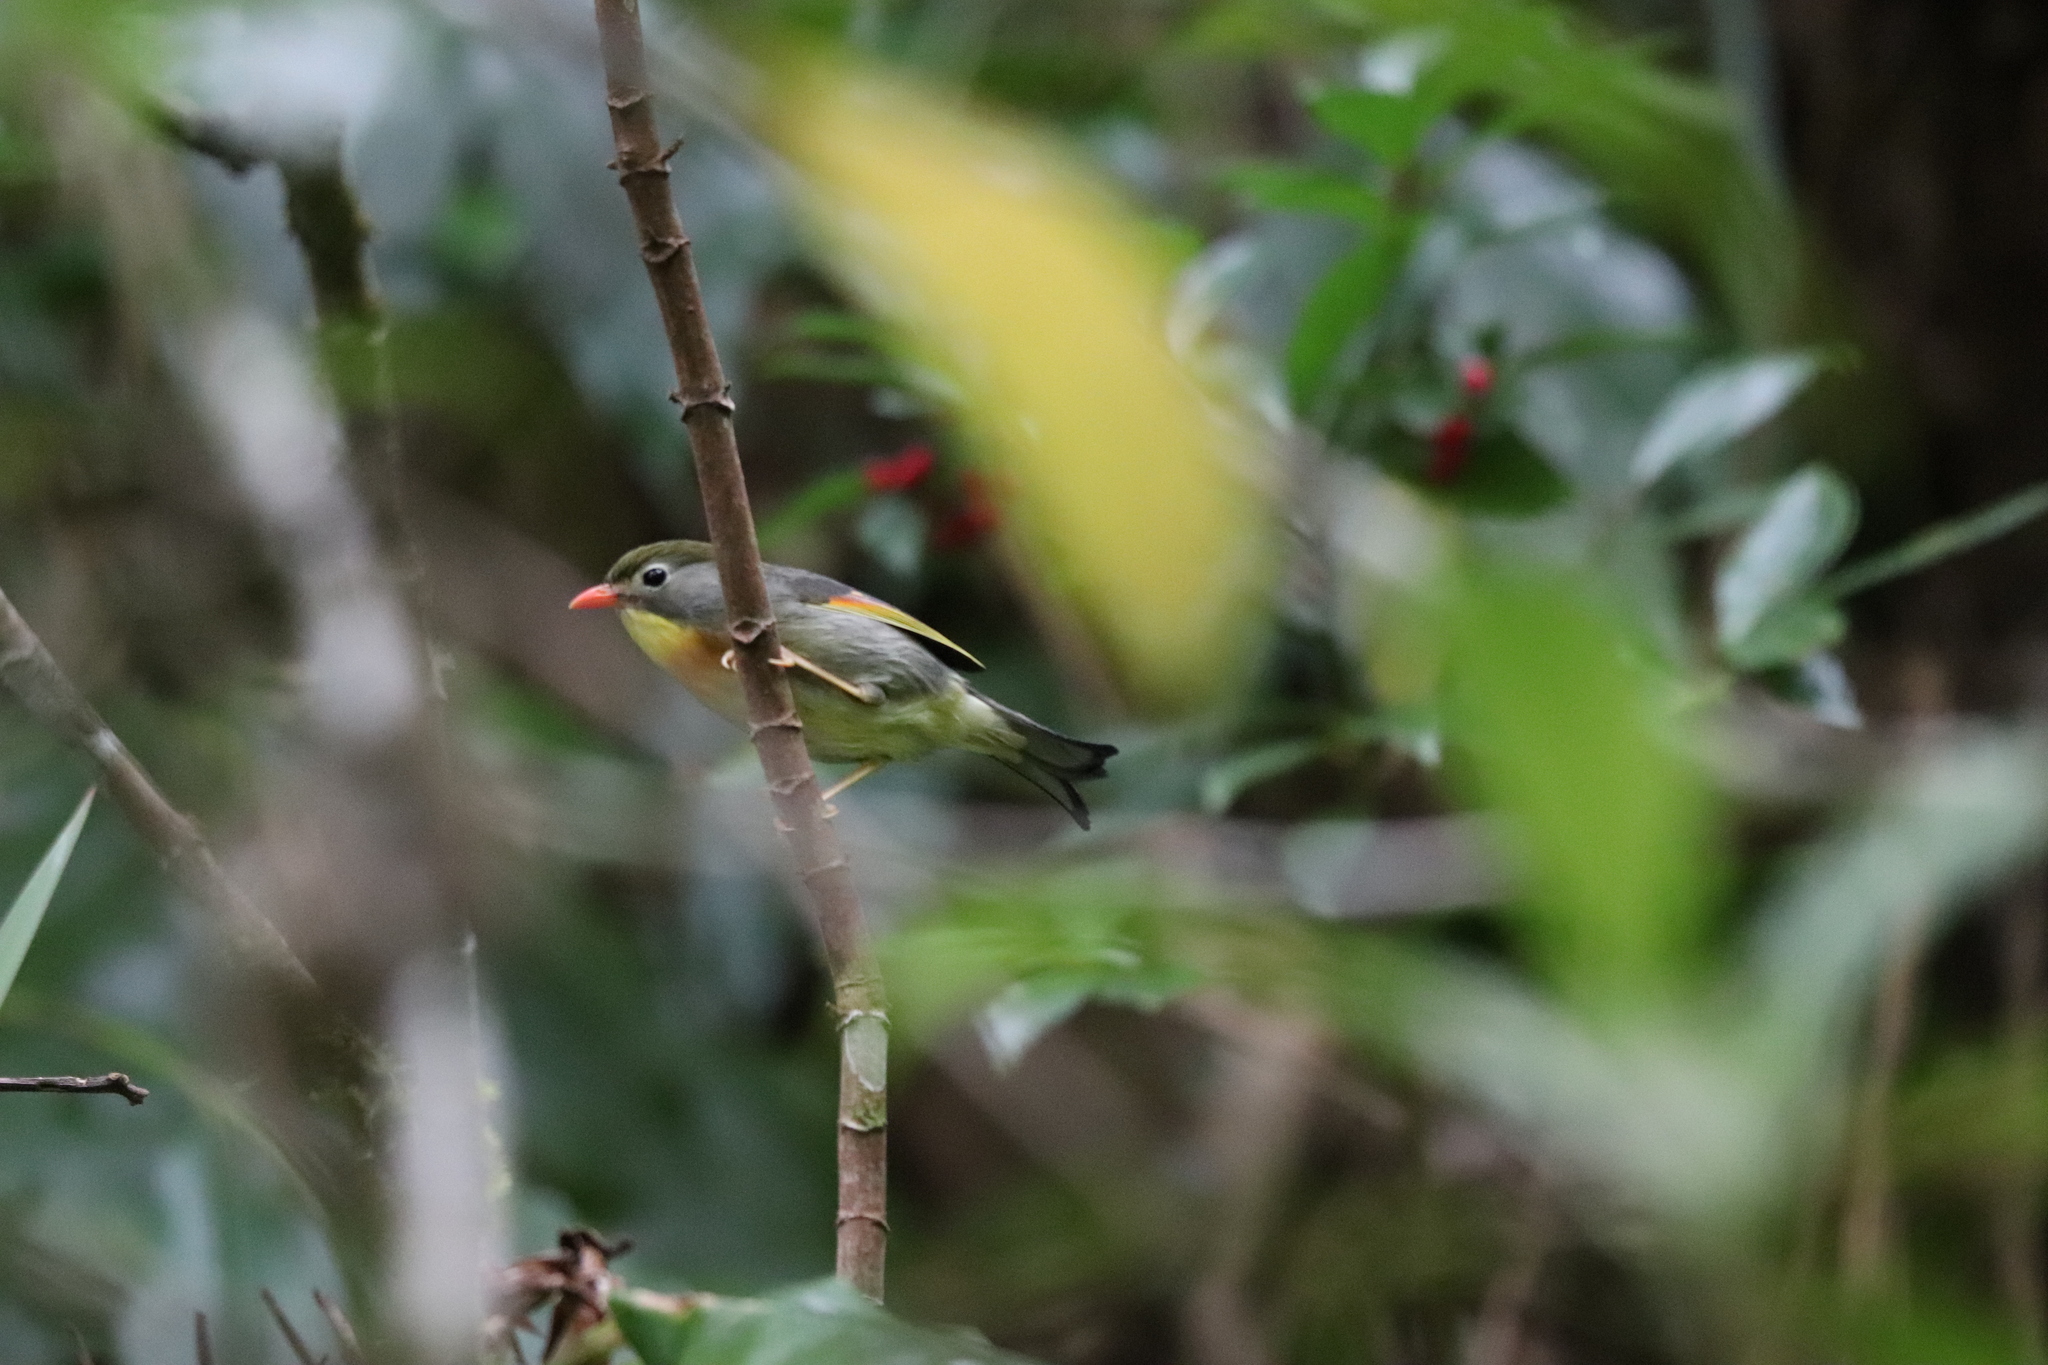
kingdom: Animalia
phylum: Chordata
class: Aves
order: Passeriformes
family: Leiothrichidae
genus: Leiothrix
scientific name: Leiothrix lutea
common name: Red-billed leiothrix
